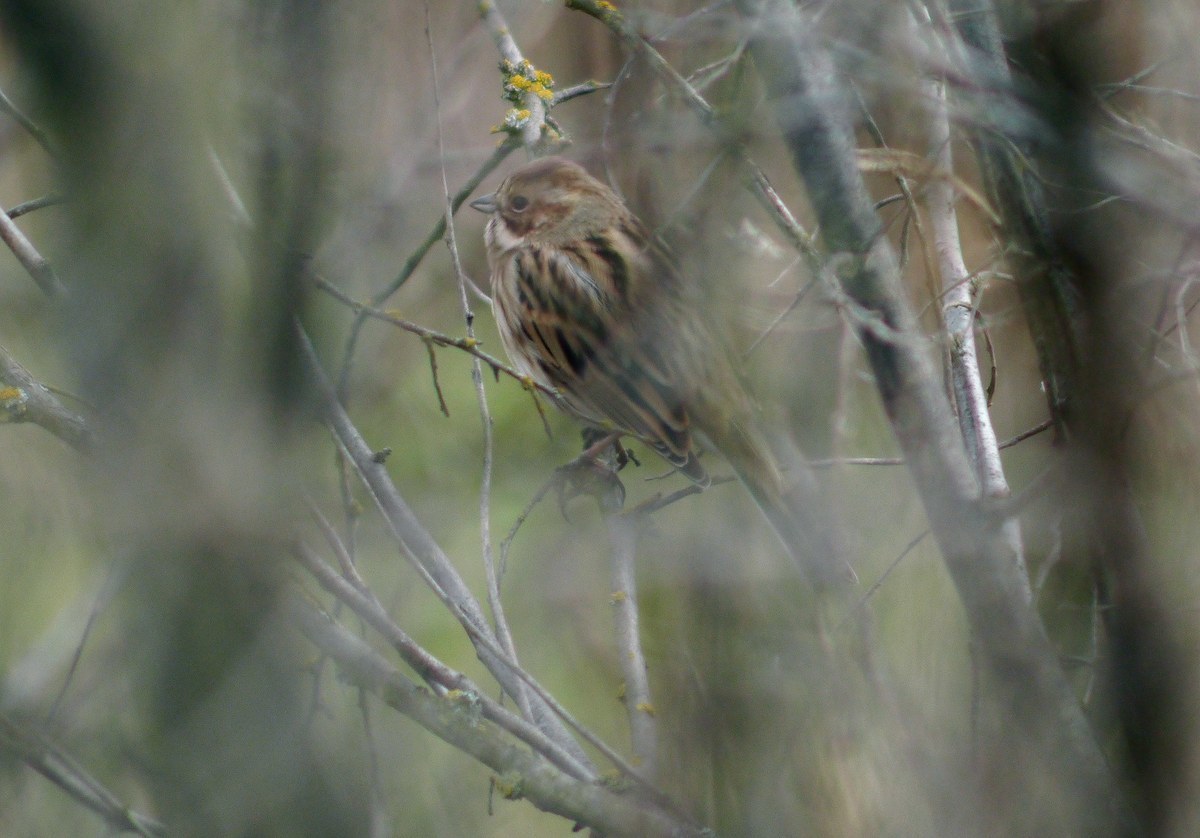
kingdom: Animalia
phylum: Chordata
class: Aves
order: Passeriformes
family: Emberizidae
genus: Emberiza
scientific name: Emberiza schoeniclus
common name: Reed bunting
